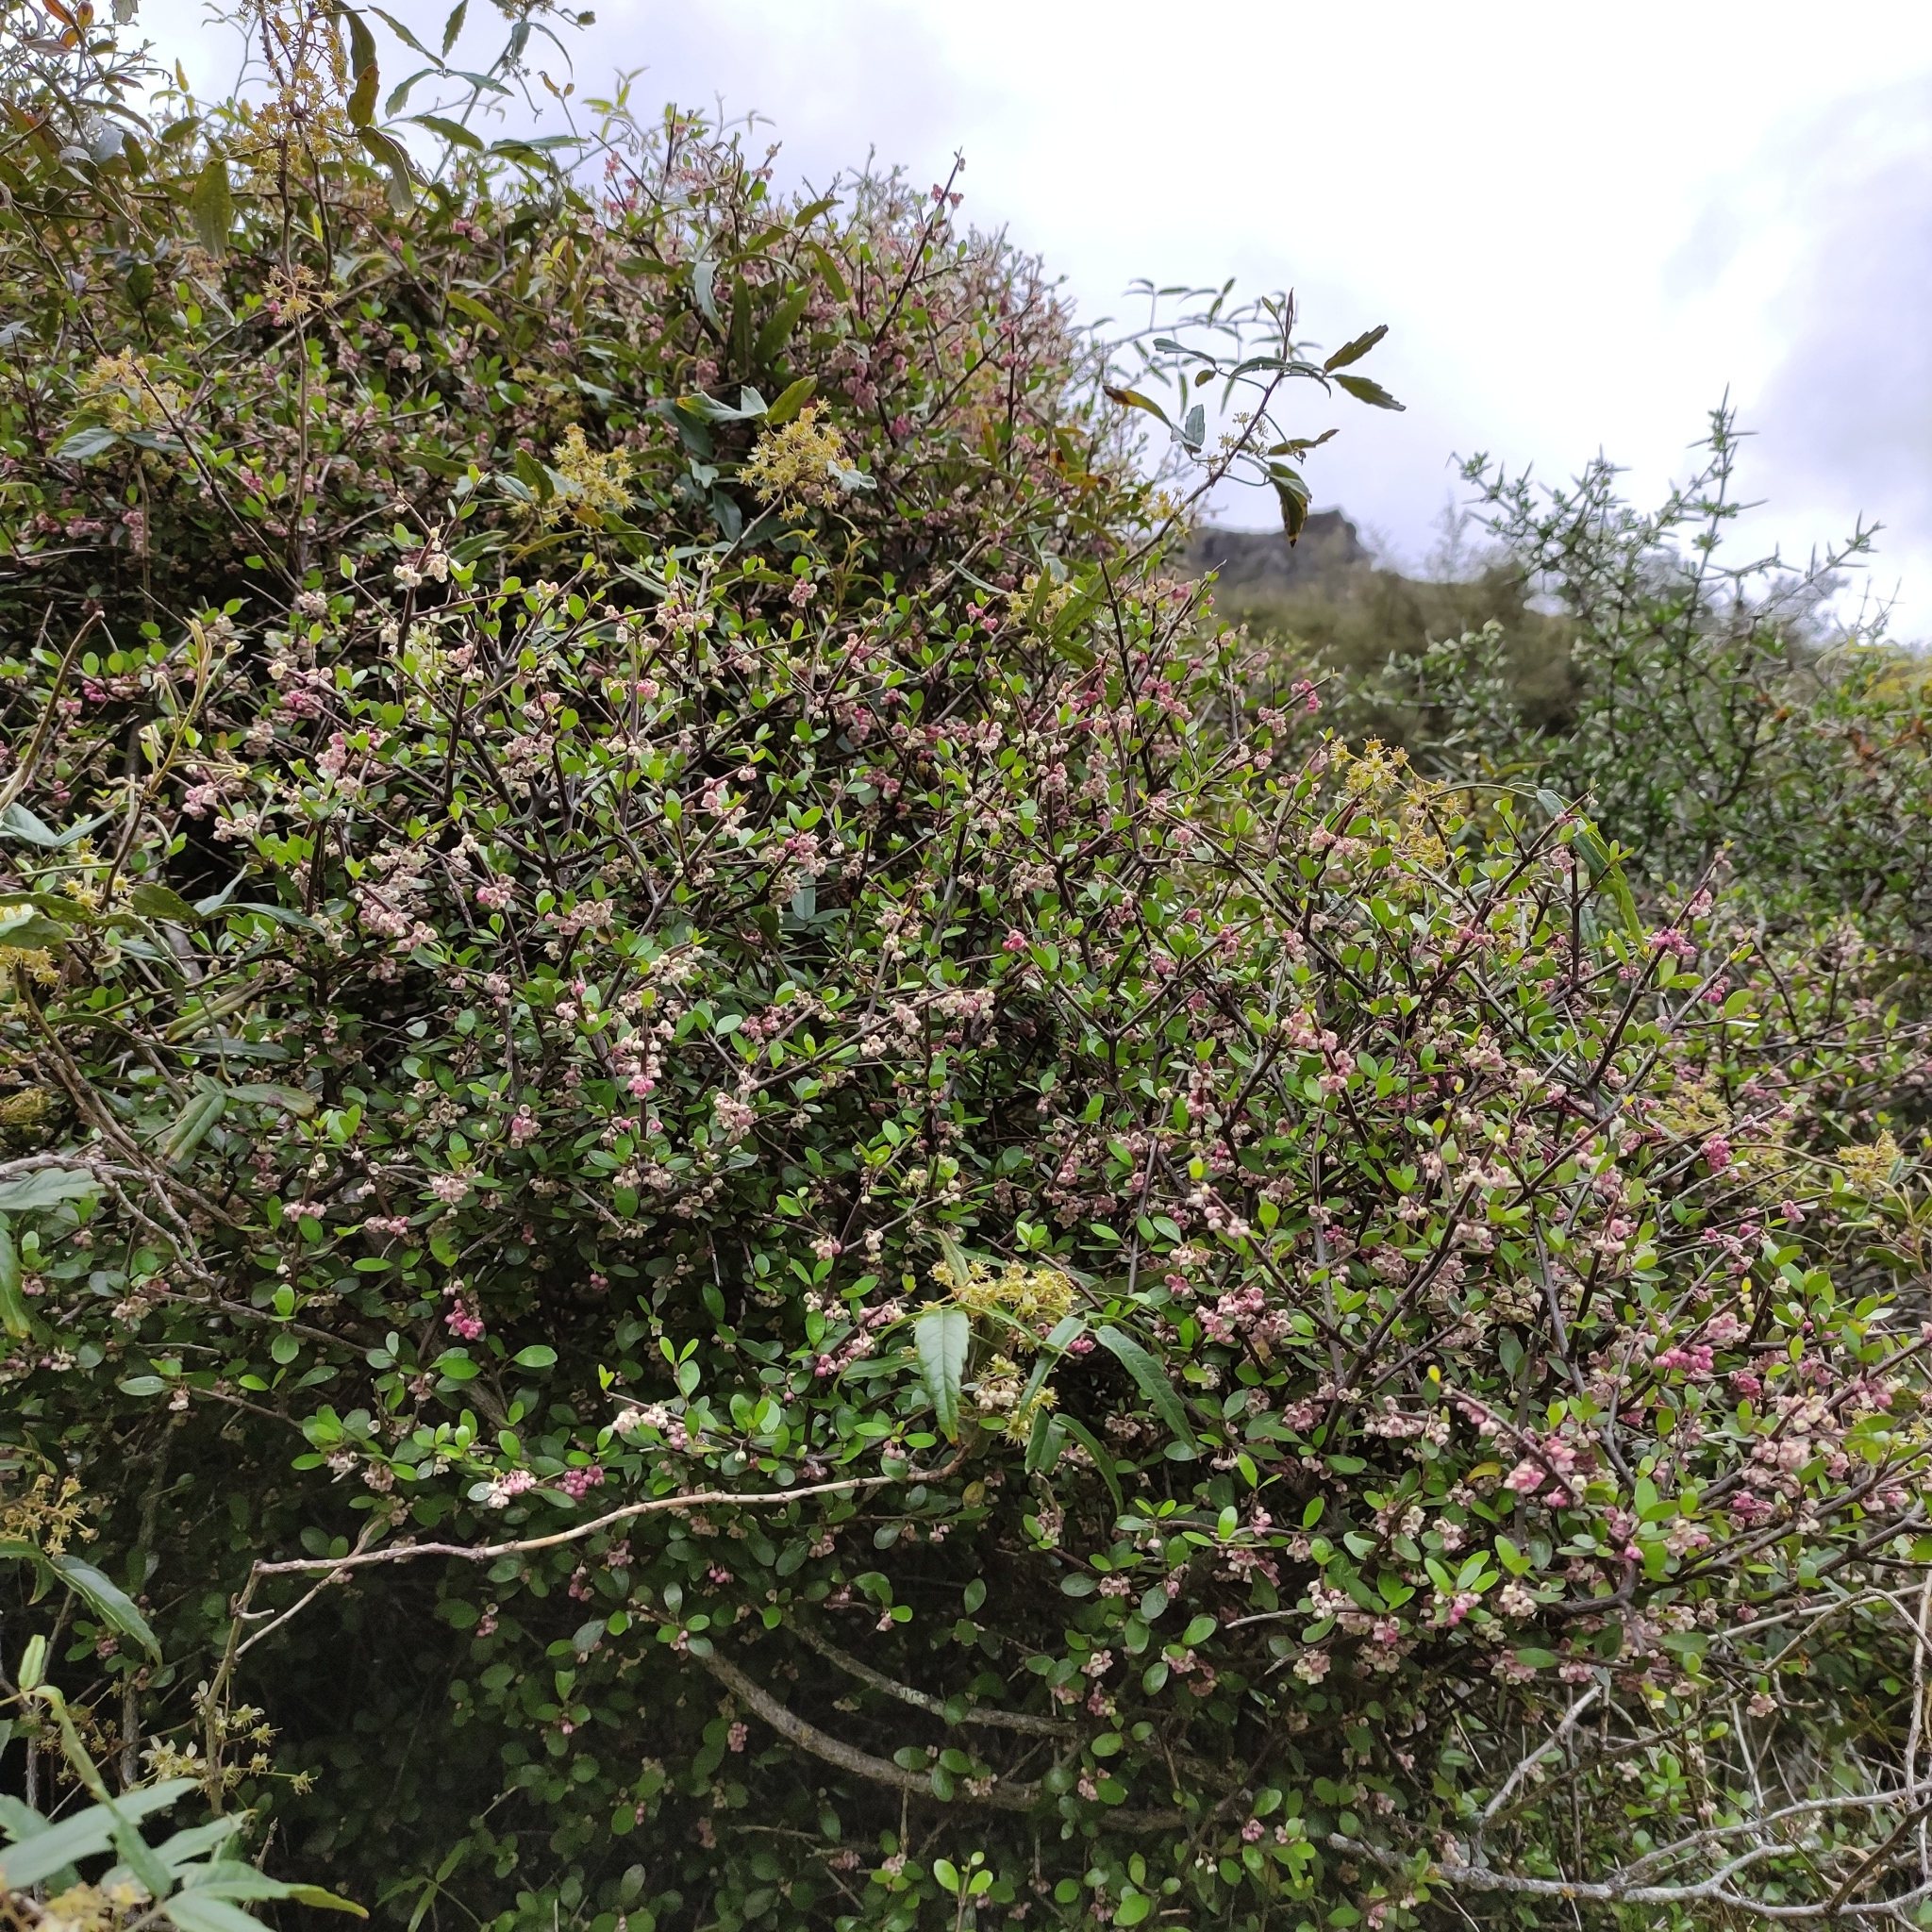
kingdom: Plantae
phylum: Tracheophyta
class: Magnoliopsida
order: Oxalidales
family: Elaeocarpaceae
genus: Aristotelia
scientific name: Aristotelia fruticosa
